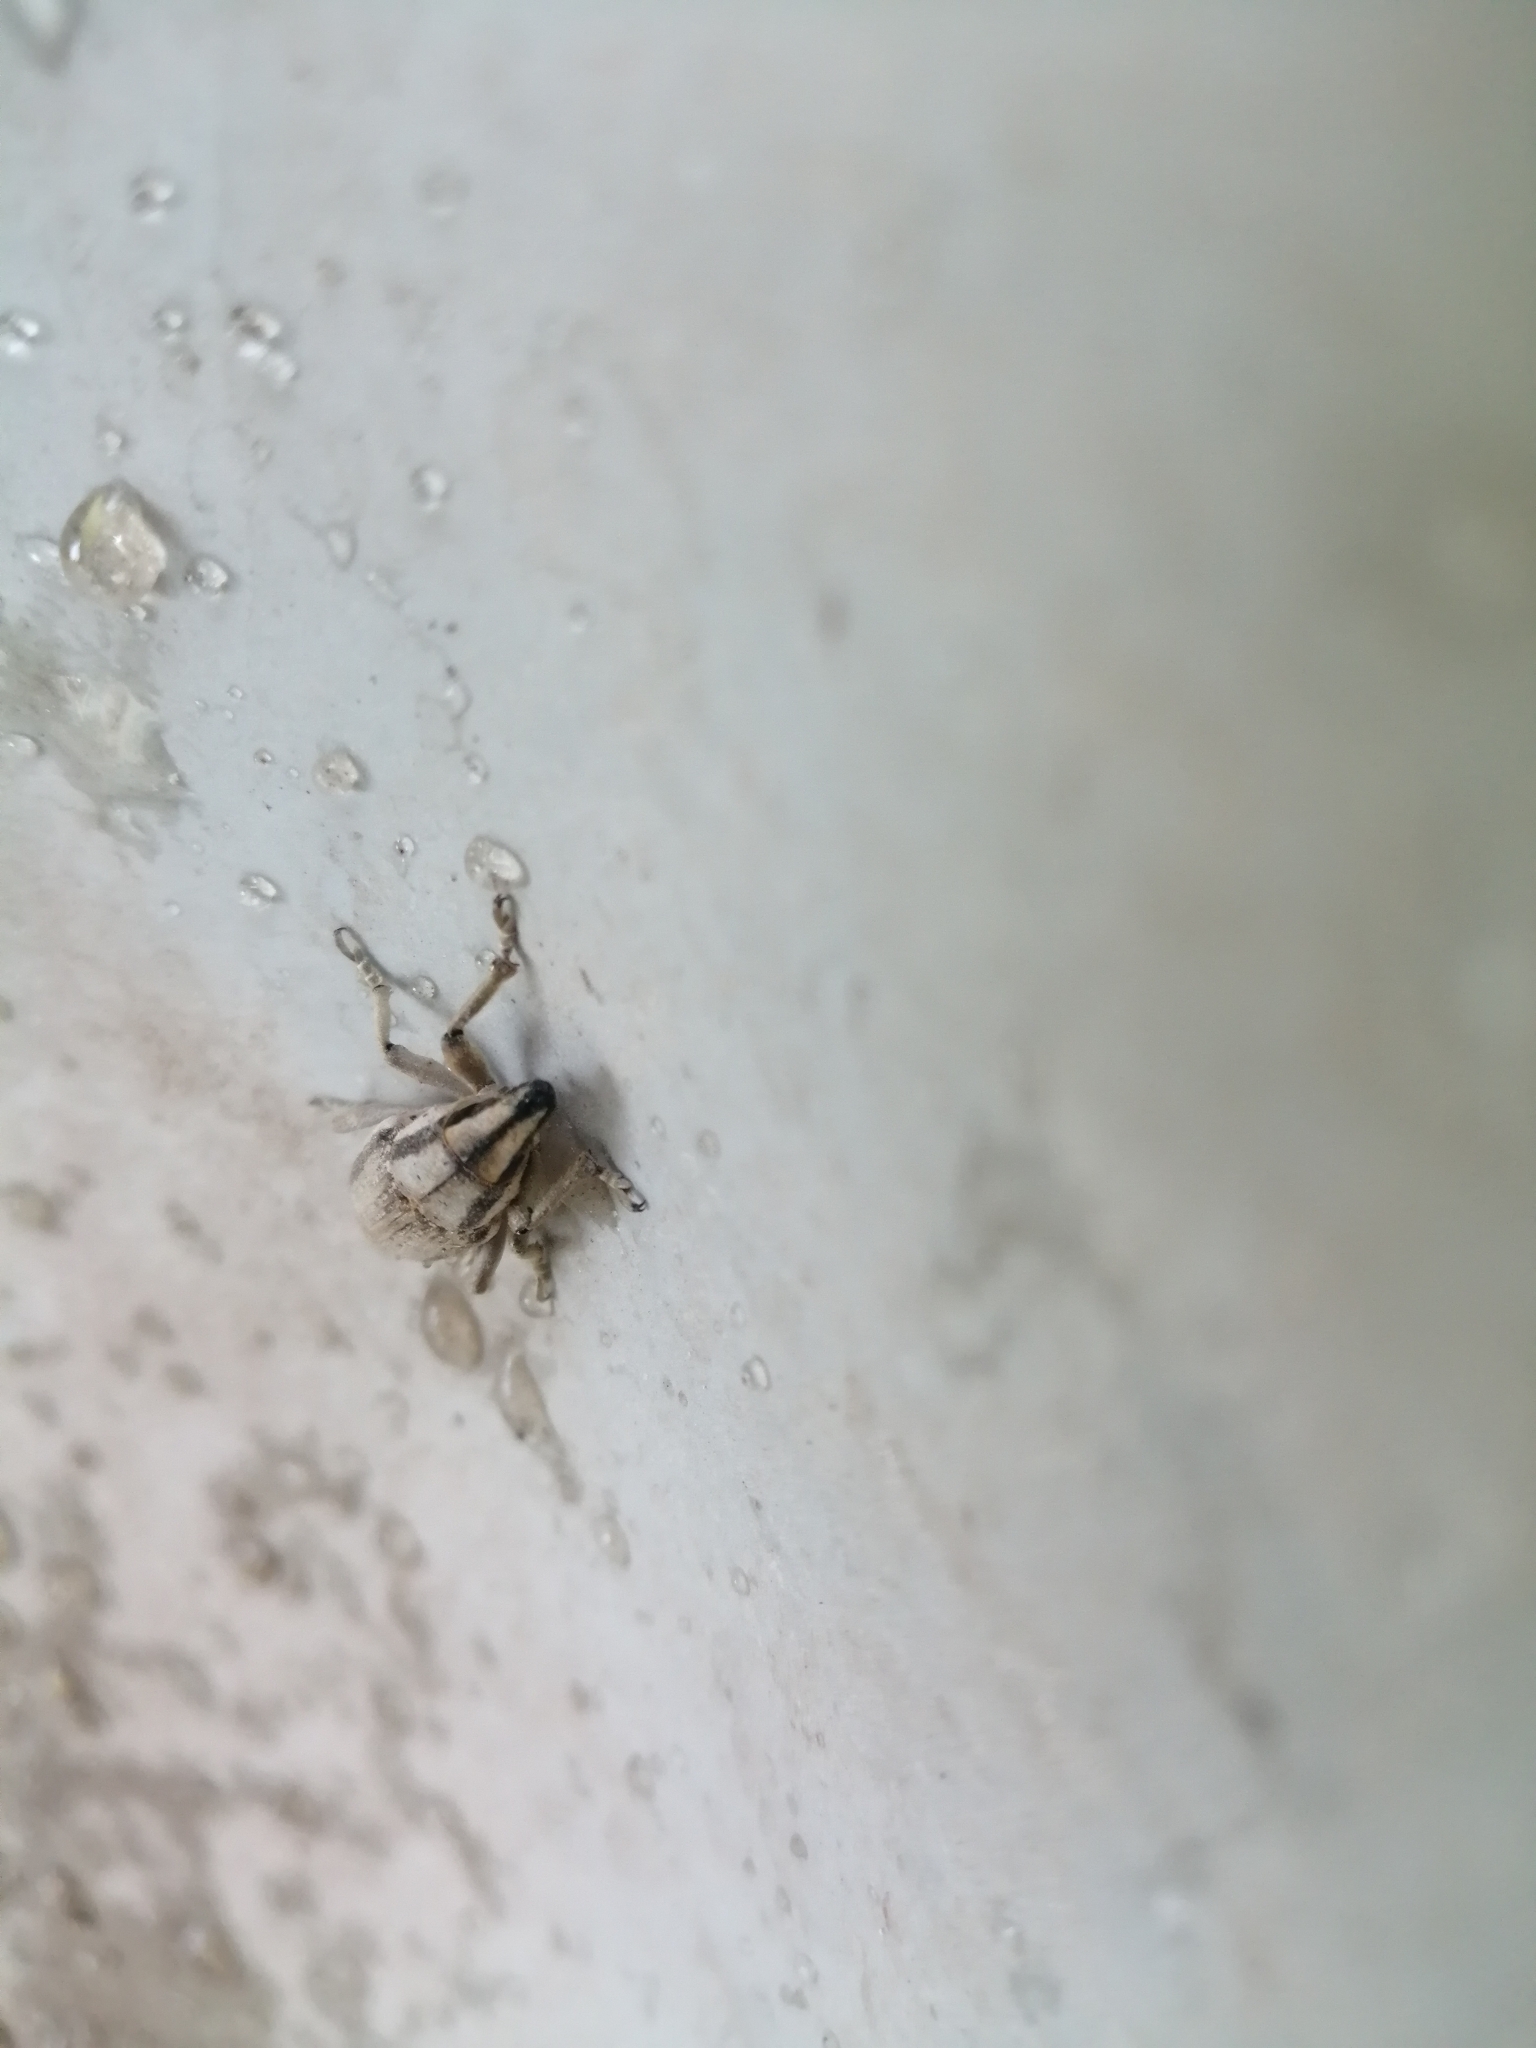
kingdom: Animalia
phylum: Arthropoda
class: Insecta
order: Coleoptera
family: Curculionidae
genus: Conorhynchus
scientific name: Conorhynchus nigrivittis
